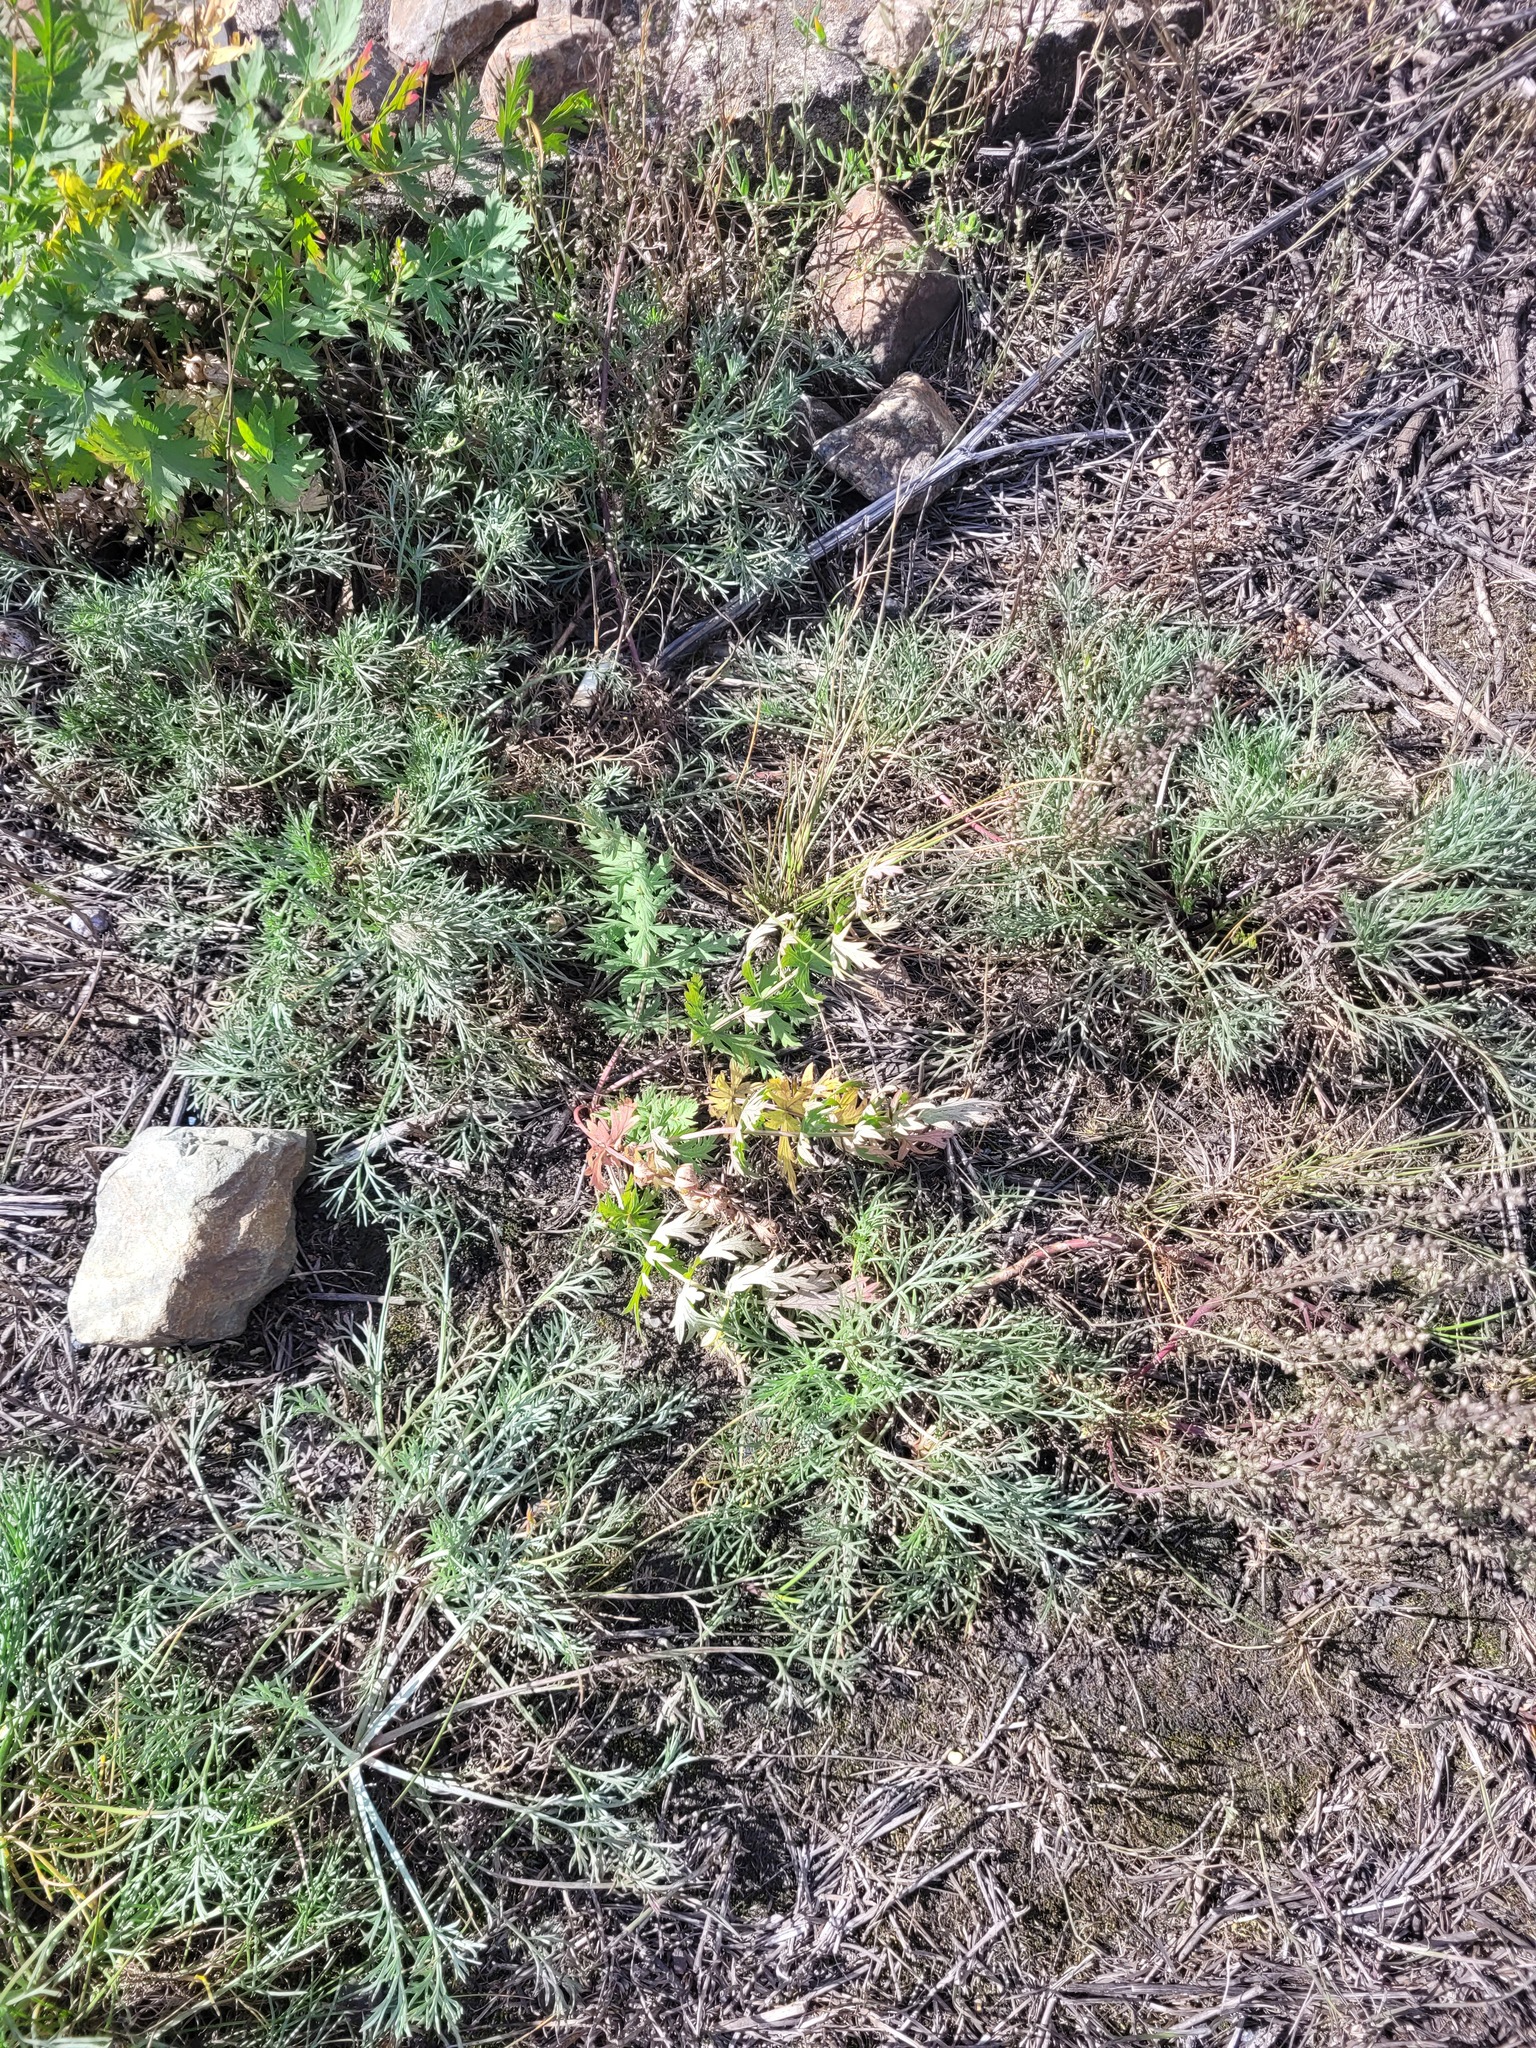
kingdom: Plantae
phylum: Tracheophyta
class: Magnoliopsida
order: Apiales
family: Apiaceae
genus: Seseli
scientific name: Seseli libanotis
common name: Mooncarrot
